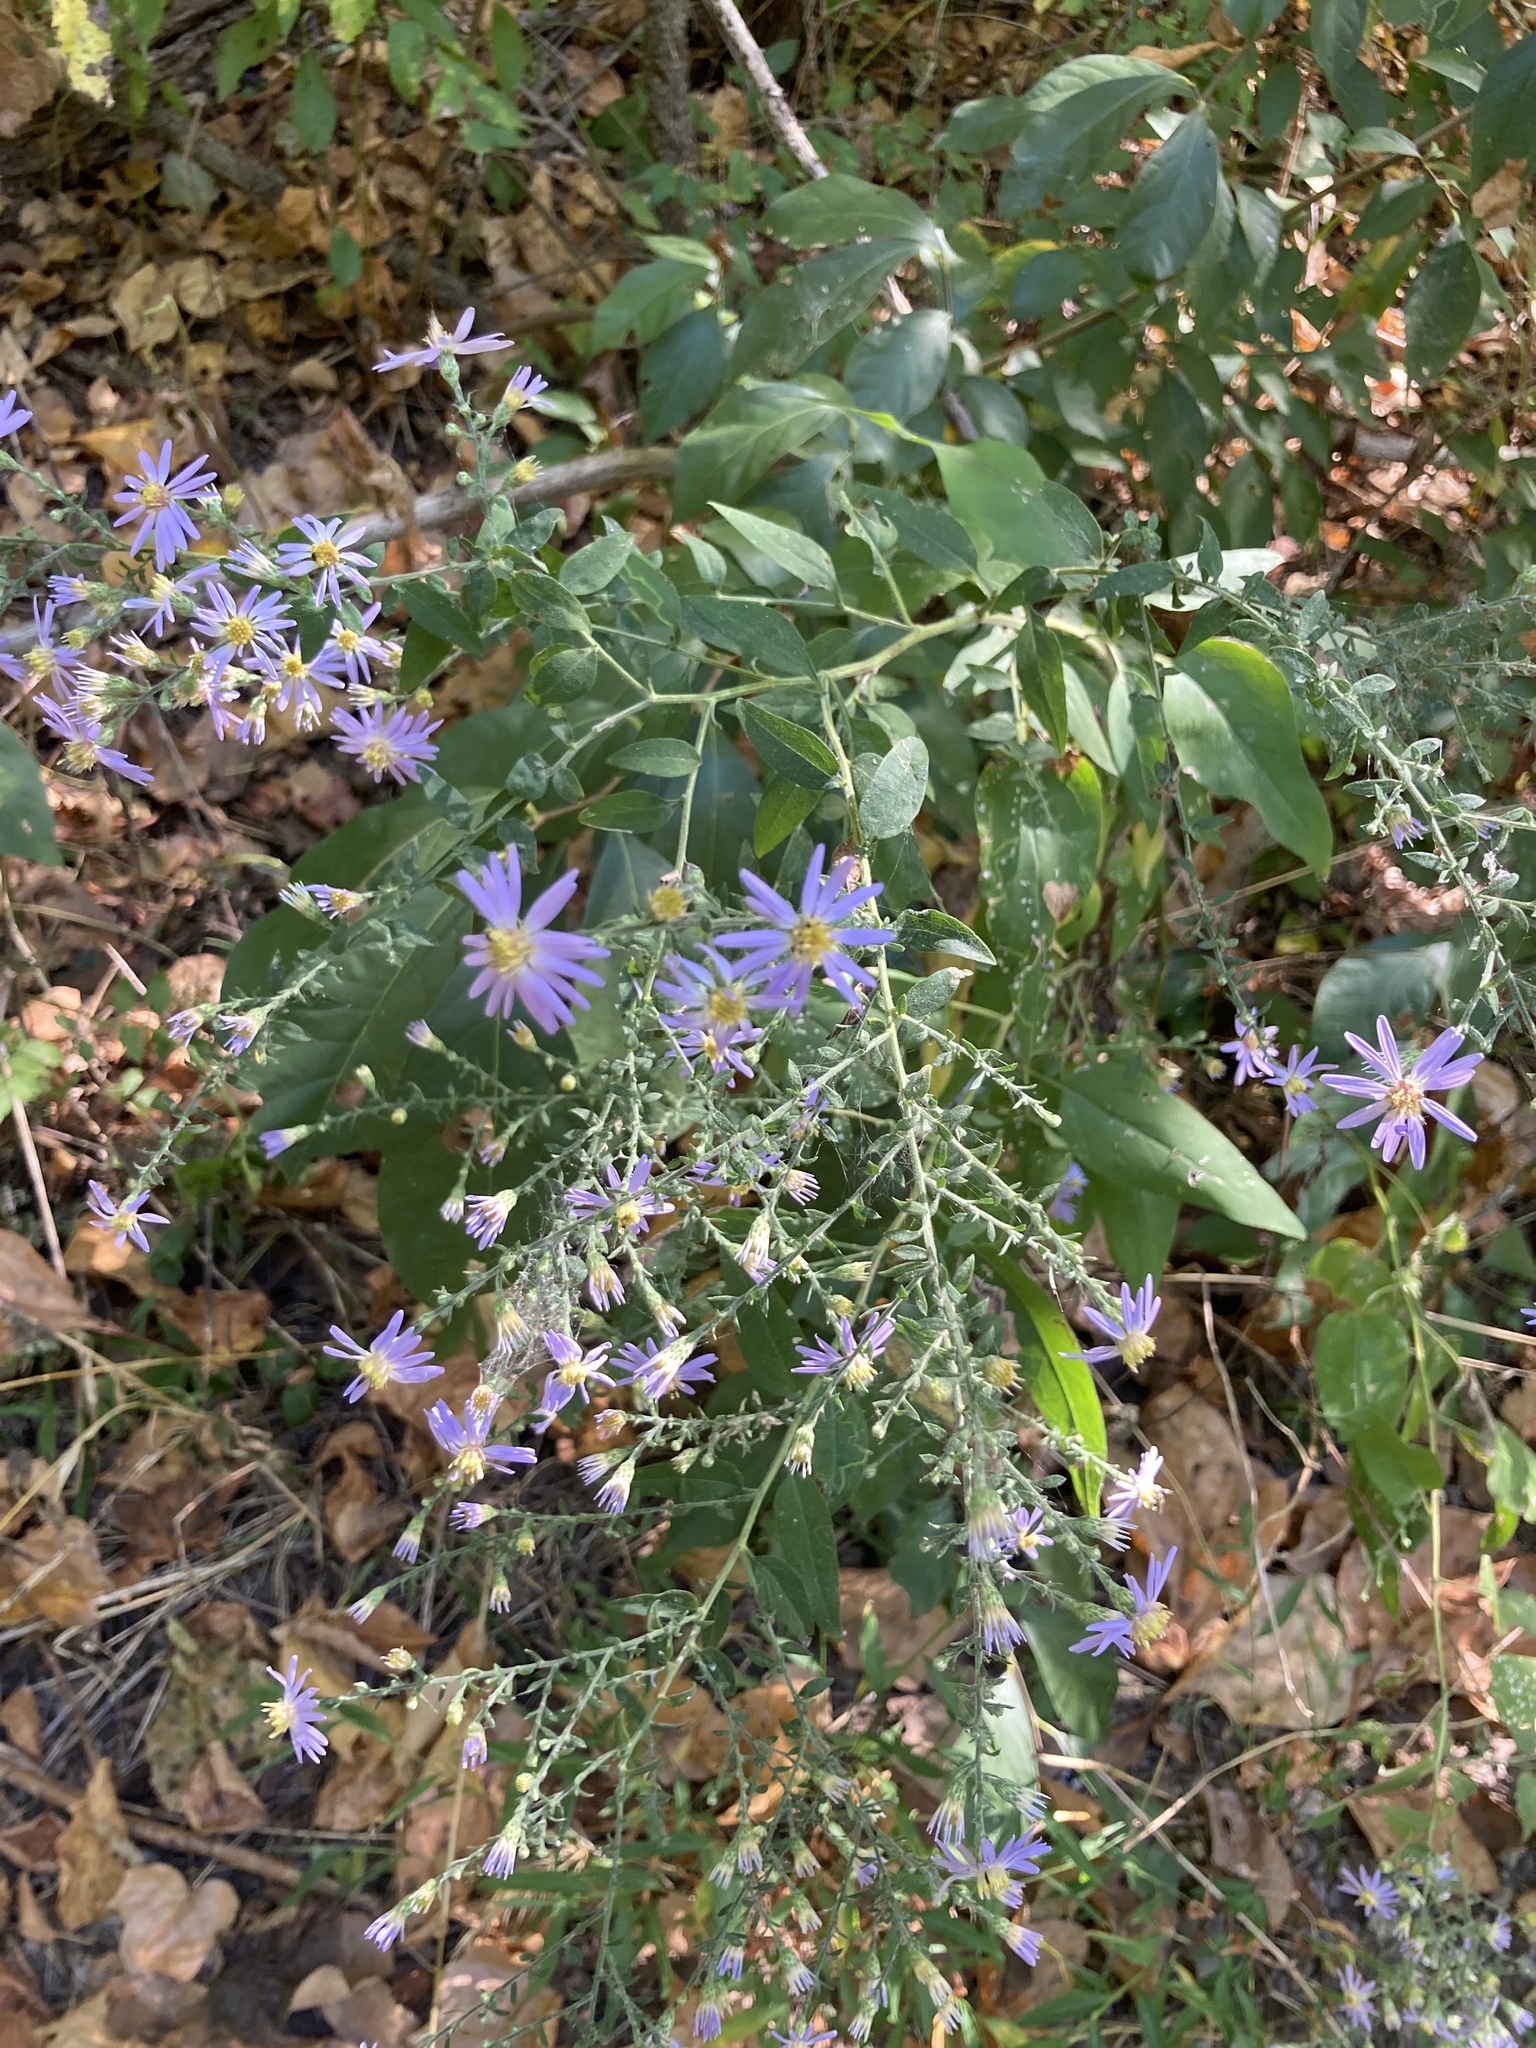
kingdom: Plantae
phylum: Tracheophyta
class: Magnoliopsida
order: Asterales
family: Asteraceae
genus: Symphyotrichum
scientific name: Symphyotrichum shortii
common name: Short's aster
